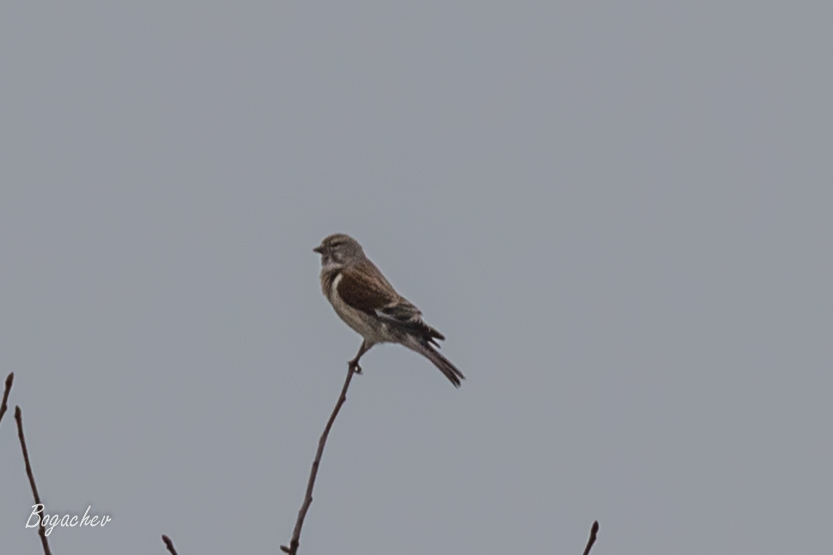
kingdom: Animalia
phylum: Chordata
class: Aves
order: Passeriformes
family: Fringillidae
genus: Linaria
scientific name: Linaria cannabina
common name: Common linnet
